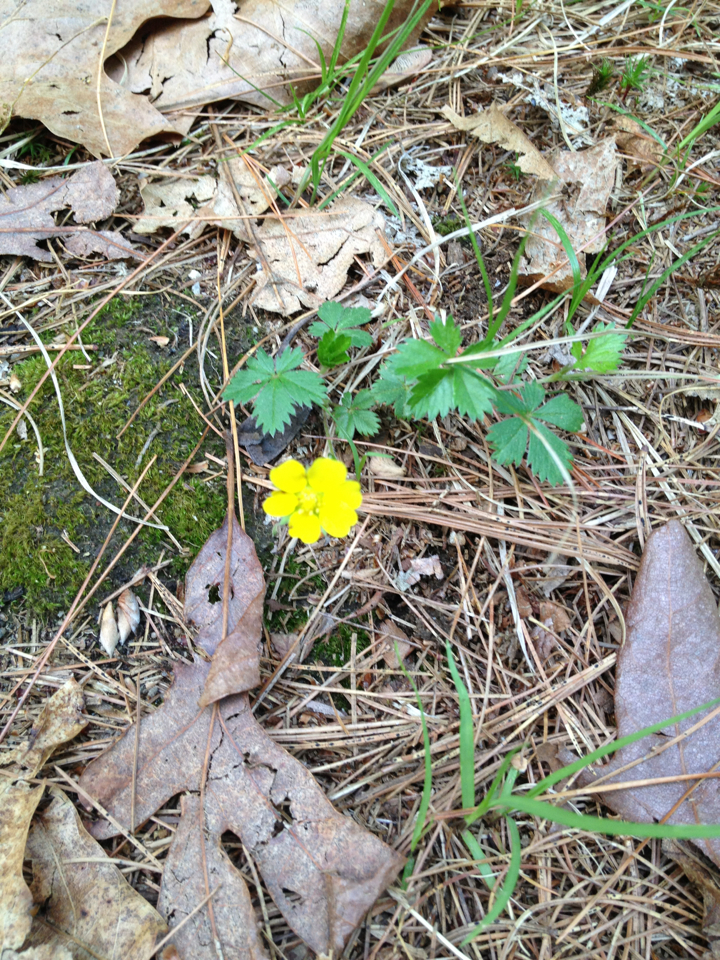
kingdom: Plantae
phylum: Tracheophyta
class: Magnoliopsida
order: Rosales
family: Rosaceae
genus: Potentilla
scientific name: Potentilla canadensis
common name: Canada cinquefoil
